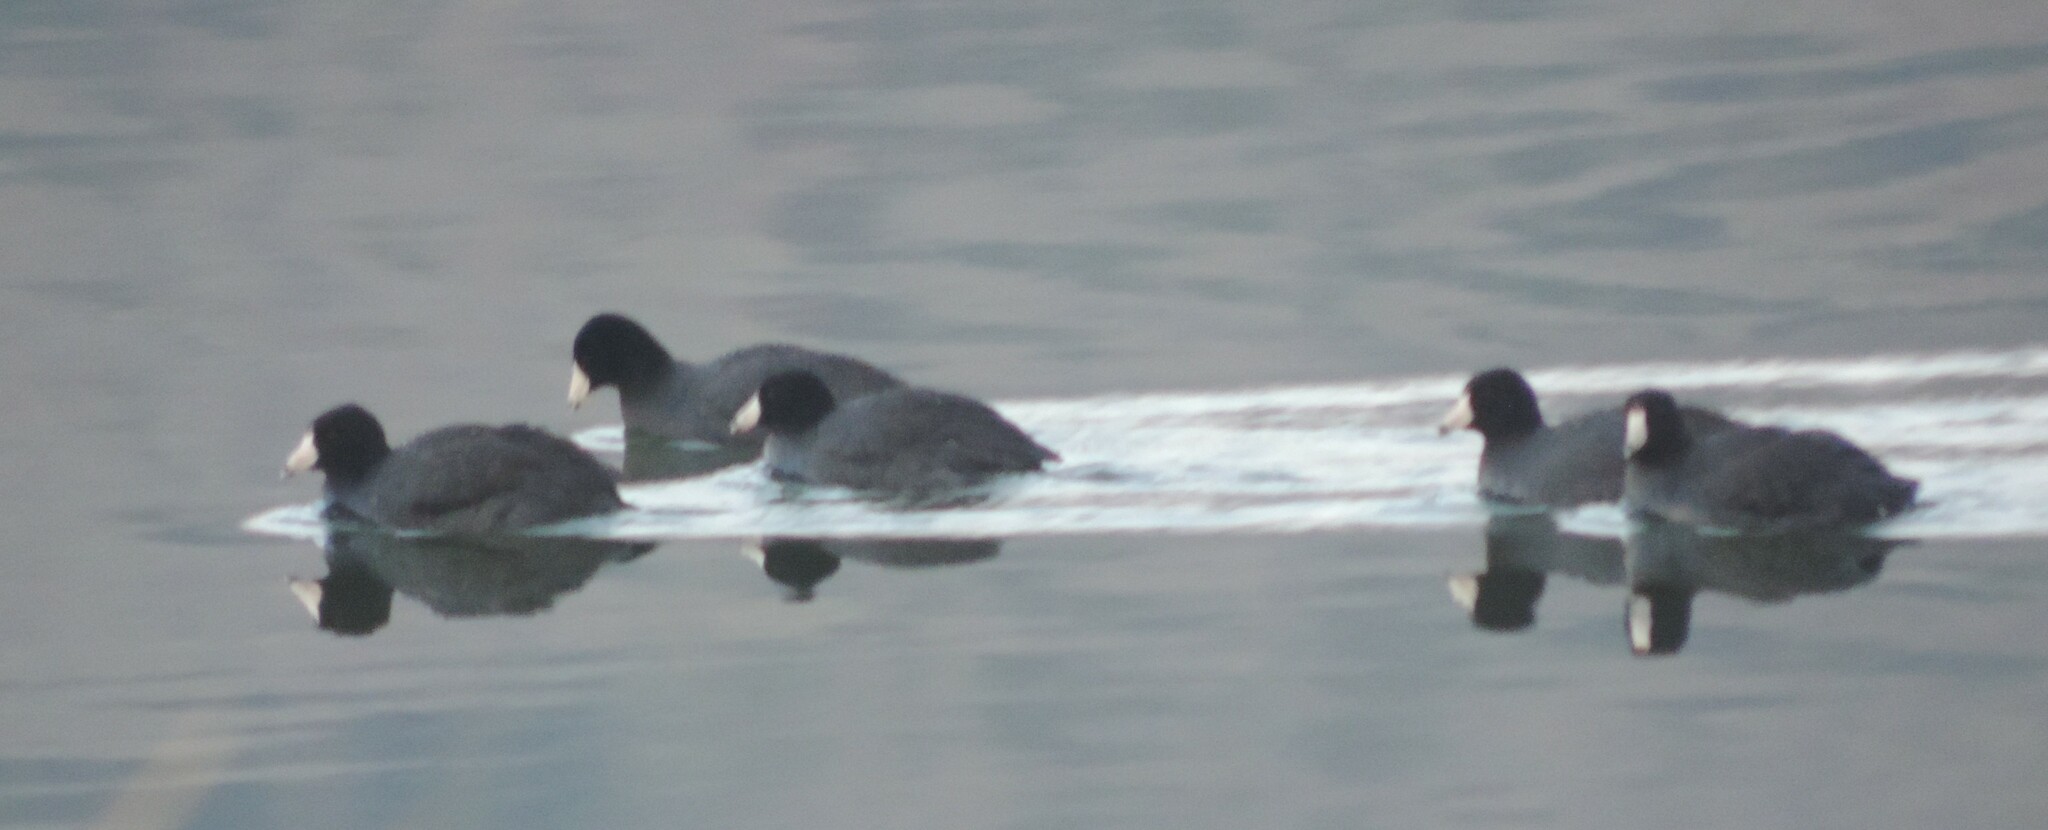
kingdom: Animalia
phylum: Chordata
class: Aves
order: Gruiformes
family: Rallidae
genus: Fulica
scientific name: Fulica americana
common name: American coot
